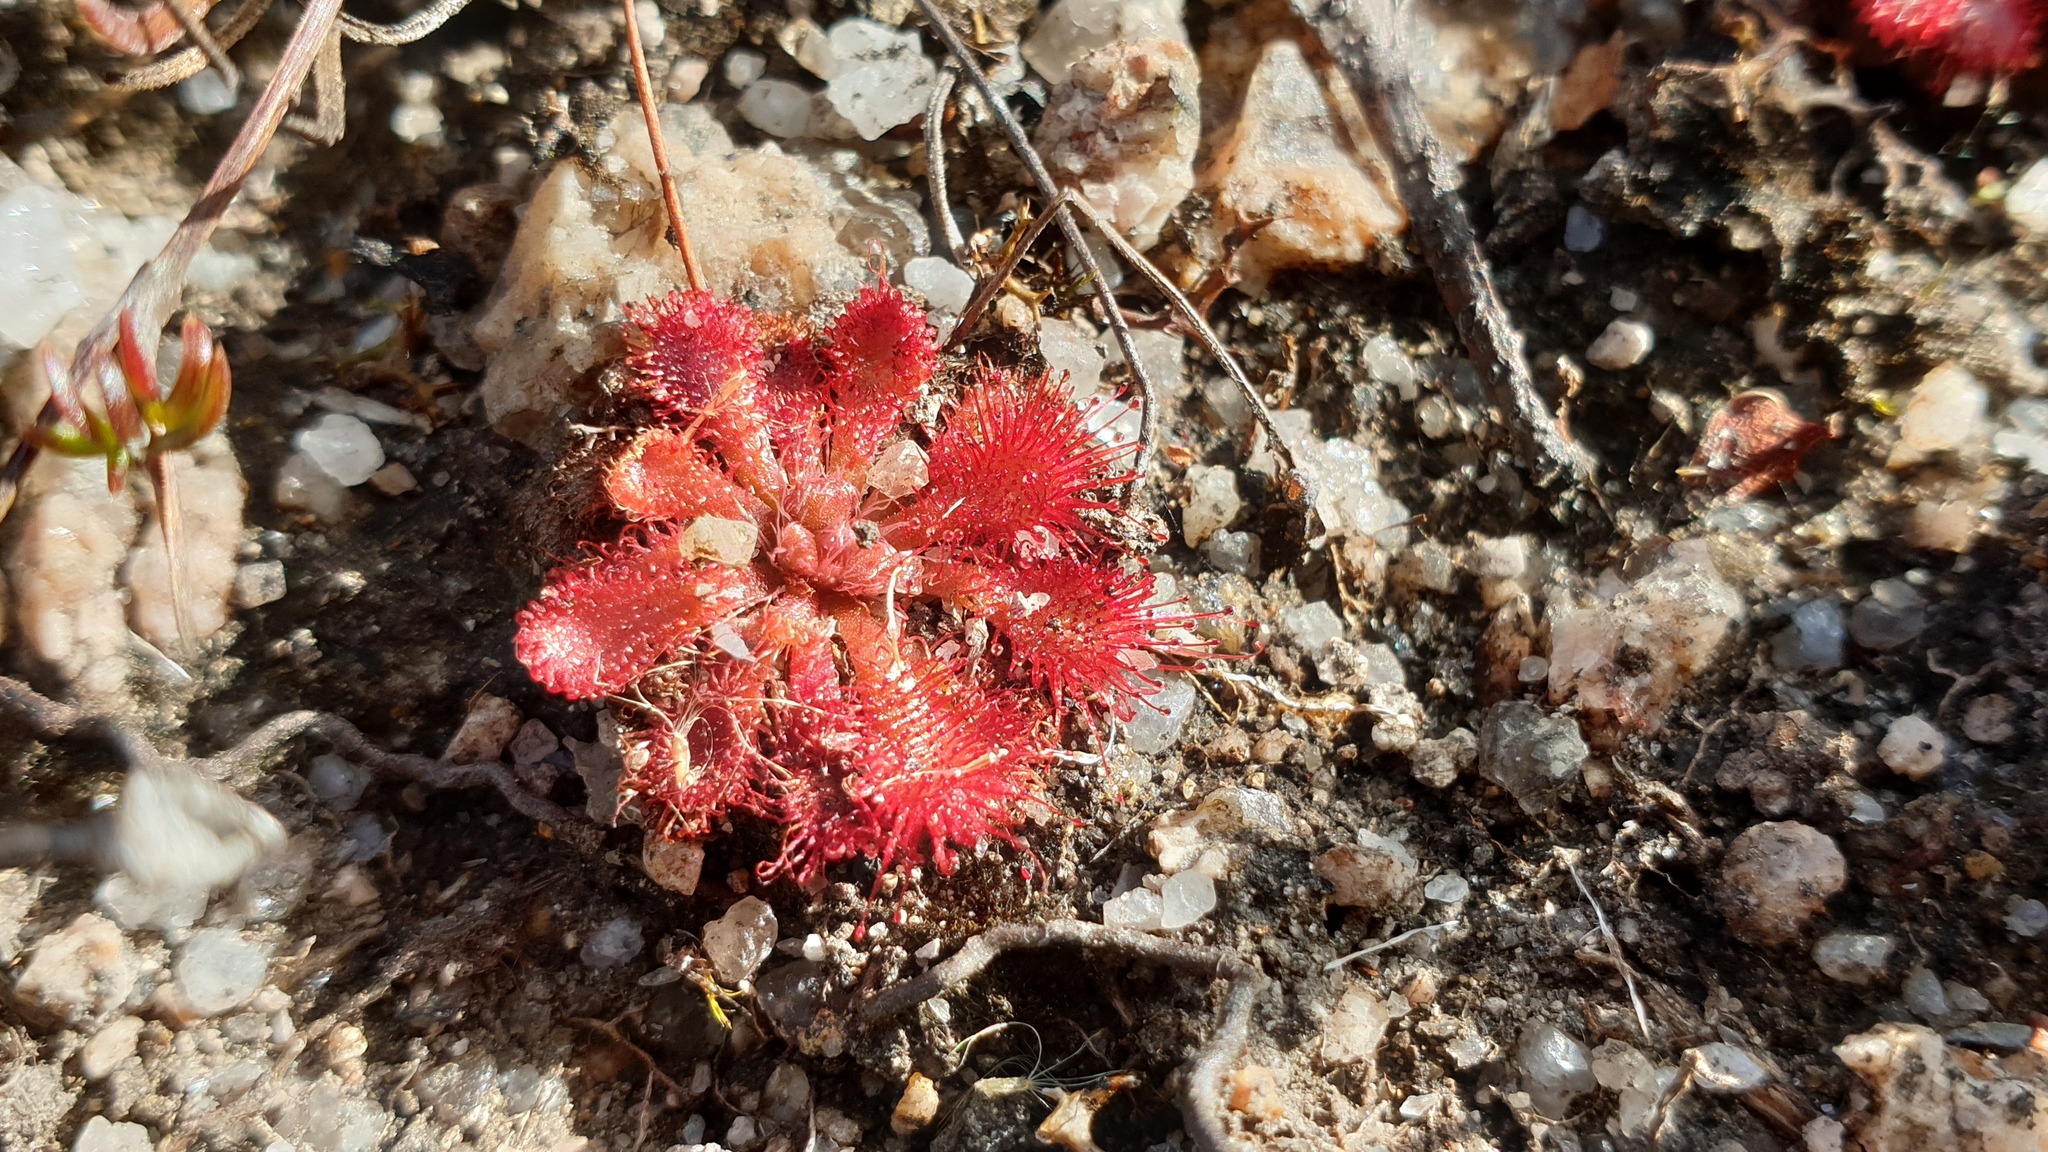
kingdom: Plantae
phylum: Tracheophyta
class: Magnoliopsida
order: Caryophyllales
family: Droseraceae
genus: Drosera
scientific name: Drosera spatulata
